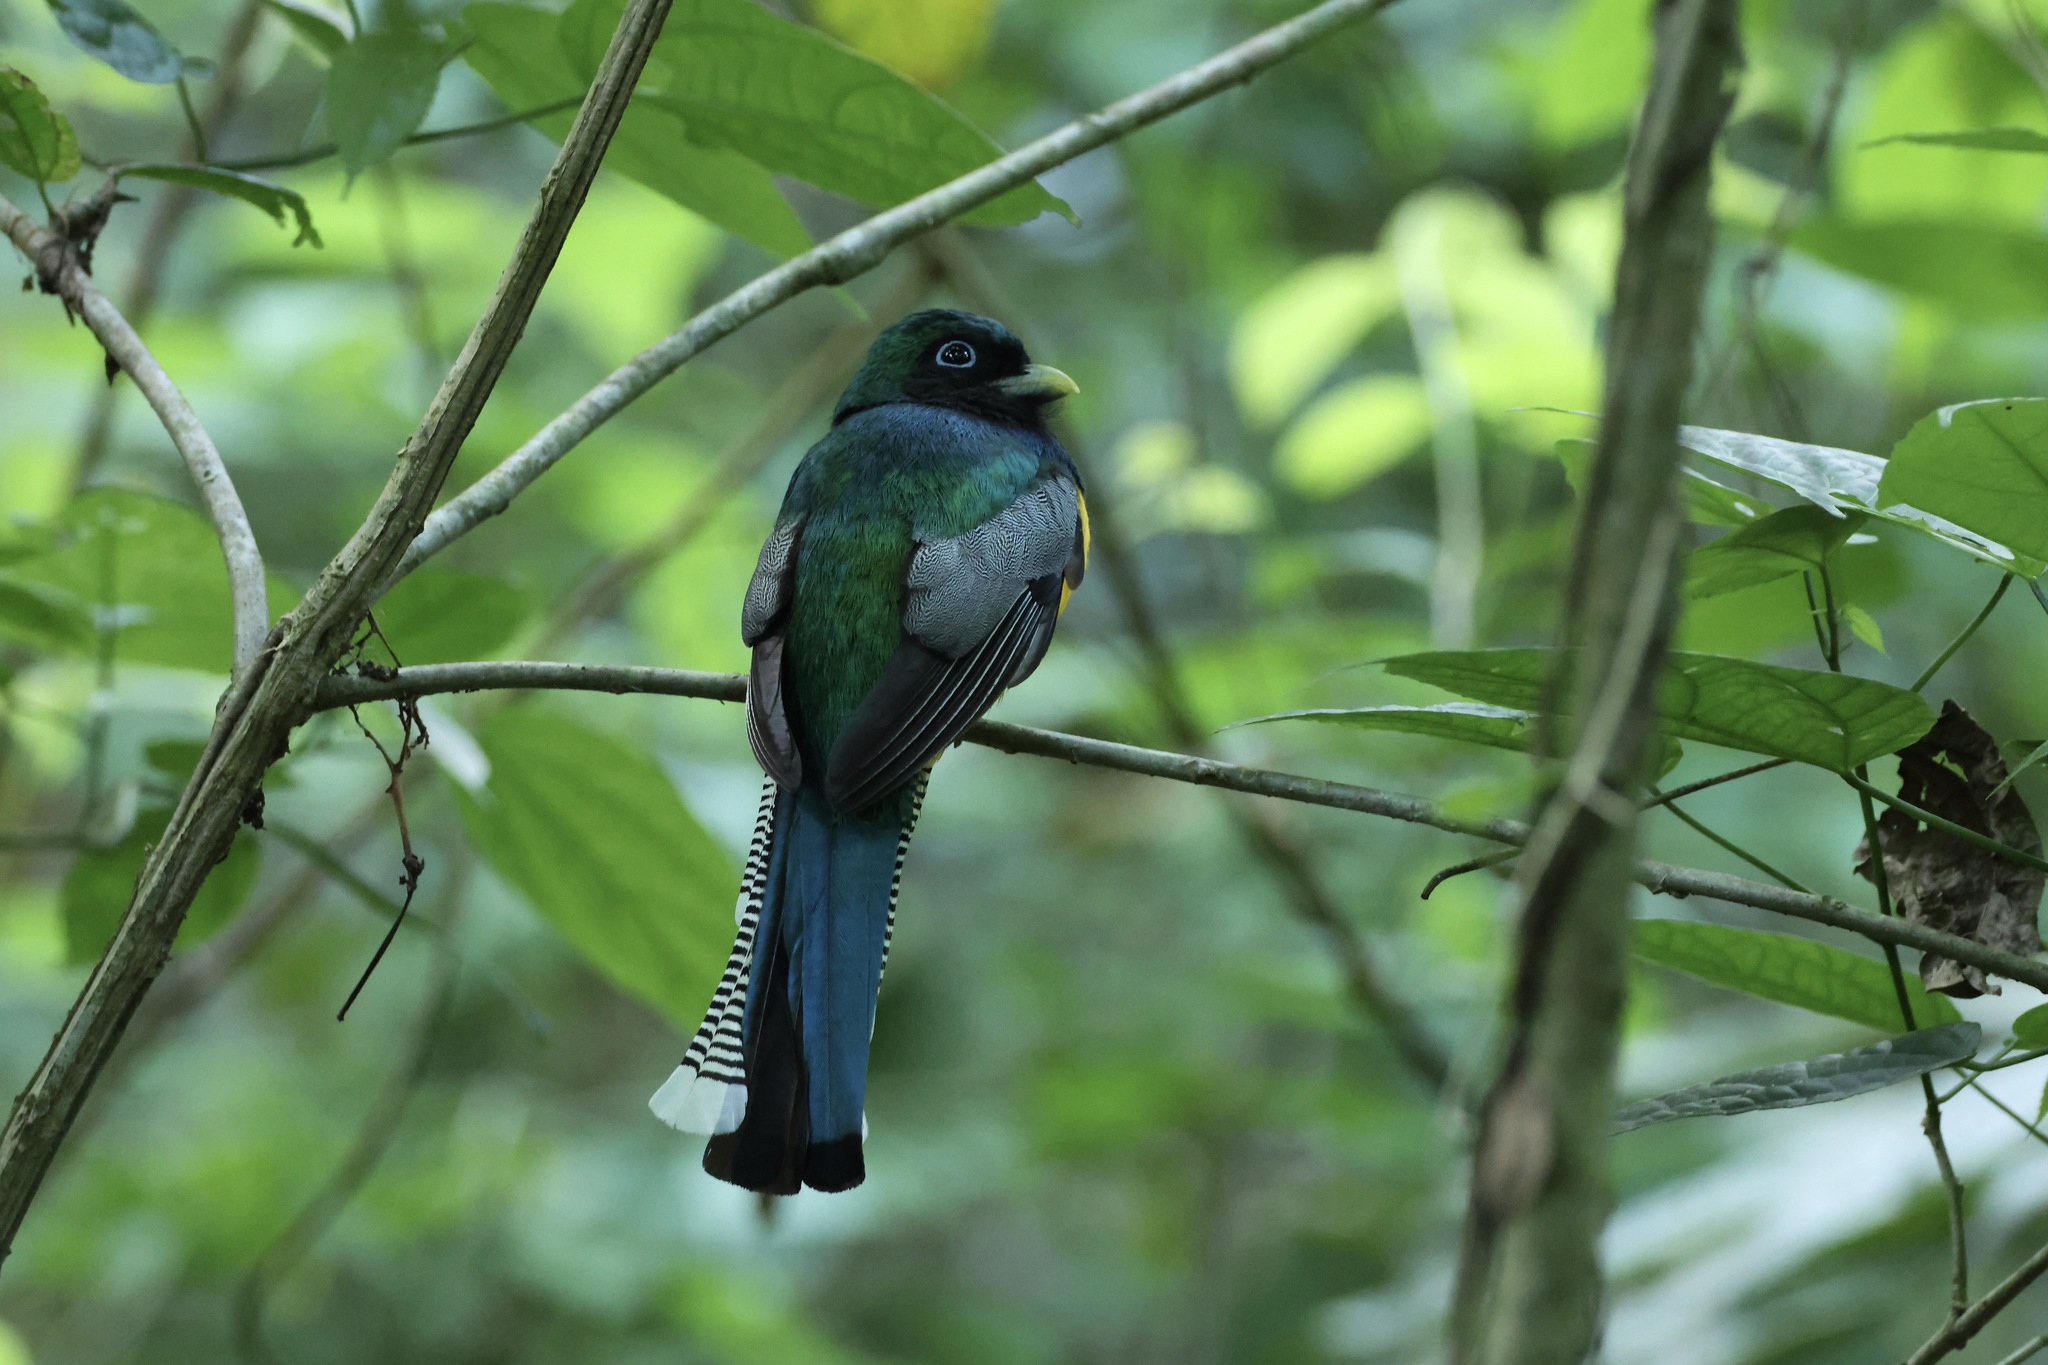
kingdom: Animalia
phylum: Chordata
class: Aves
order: Trogoniformes
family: Trogonidae
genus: Trogon
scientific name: Trogon rufus
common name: Black-throated trogon
